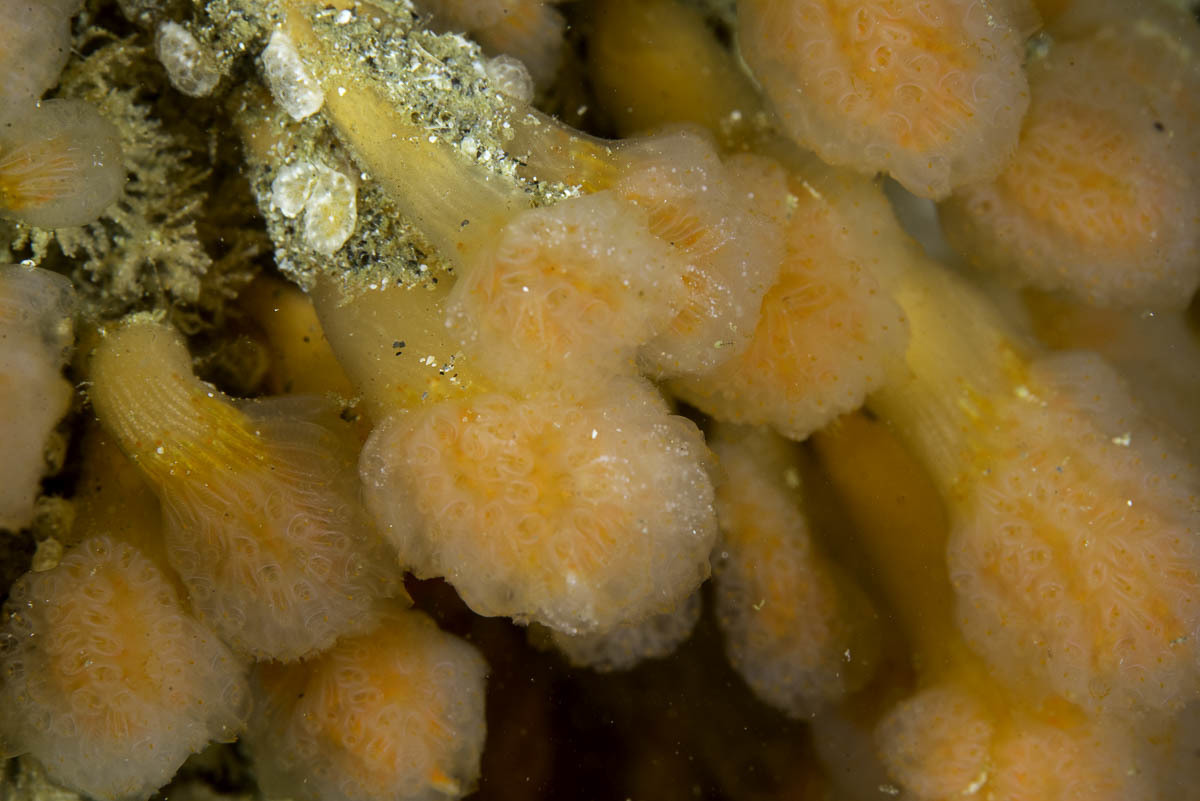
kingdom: Animalia
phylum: Chordata
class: Ascidiacea
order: Aplousobranchia
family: Polyclinidae
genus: Aplidium
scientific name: Aplidium punctum
